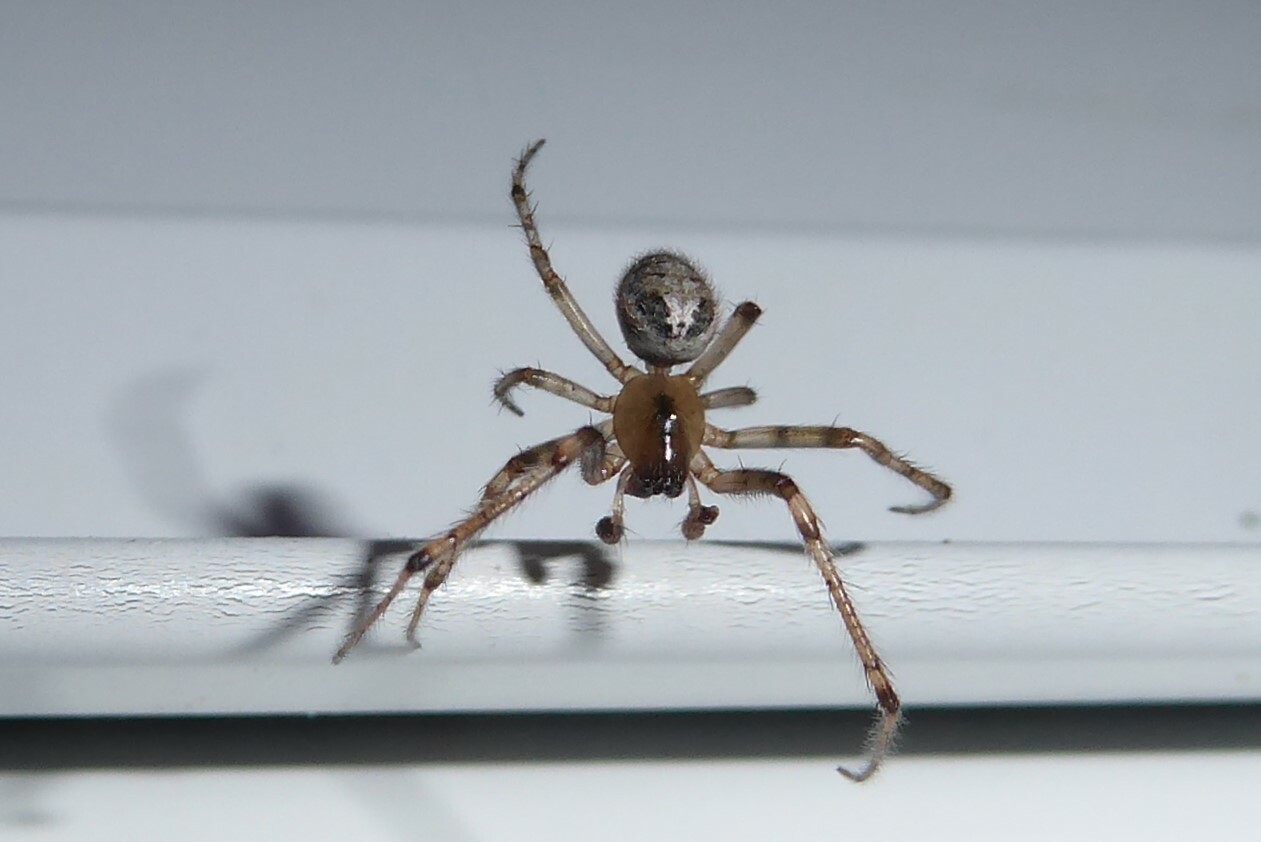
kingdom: Animalia
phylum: Arthropoda
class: Arachnida
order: Araneae
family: Araneidae
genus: Zygiella
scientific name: Zygiella x-notata
